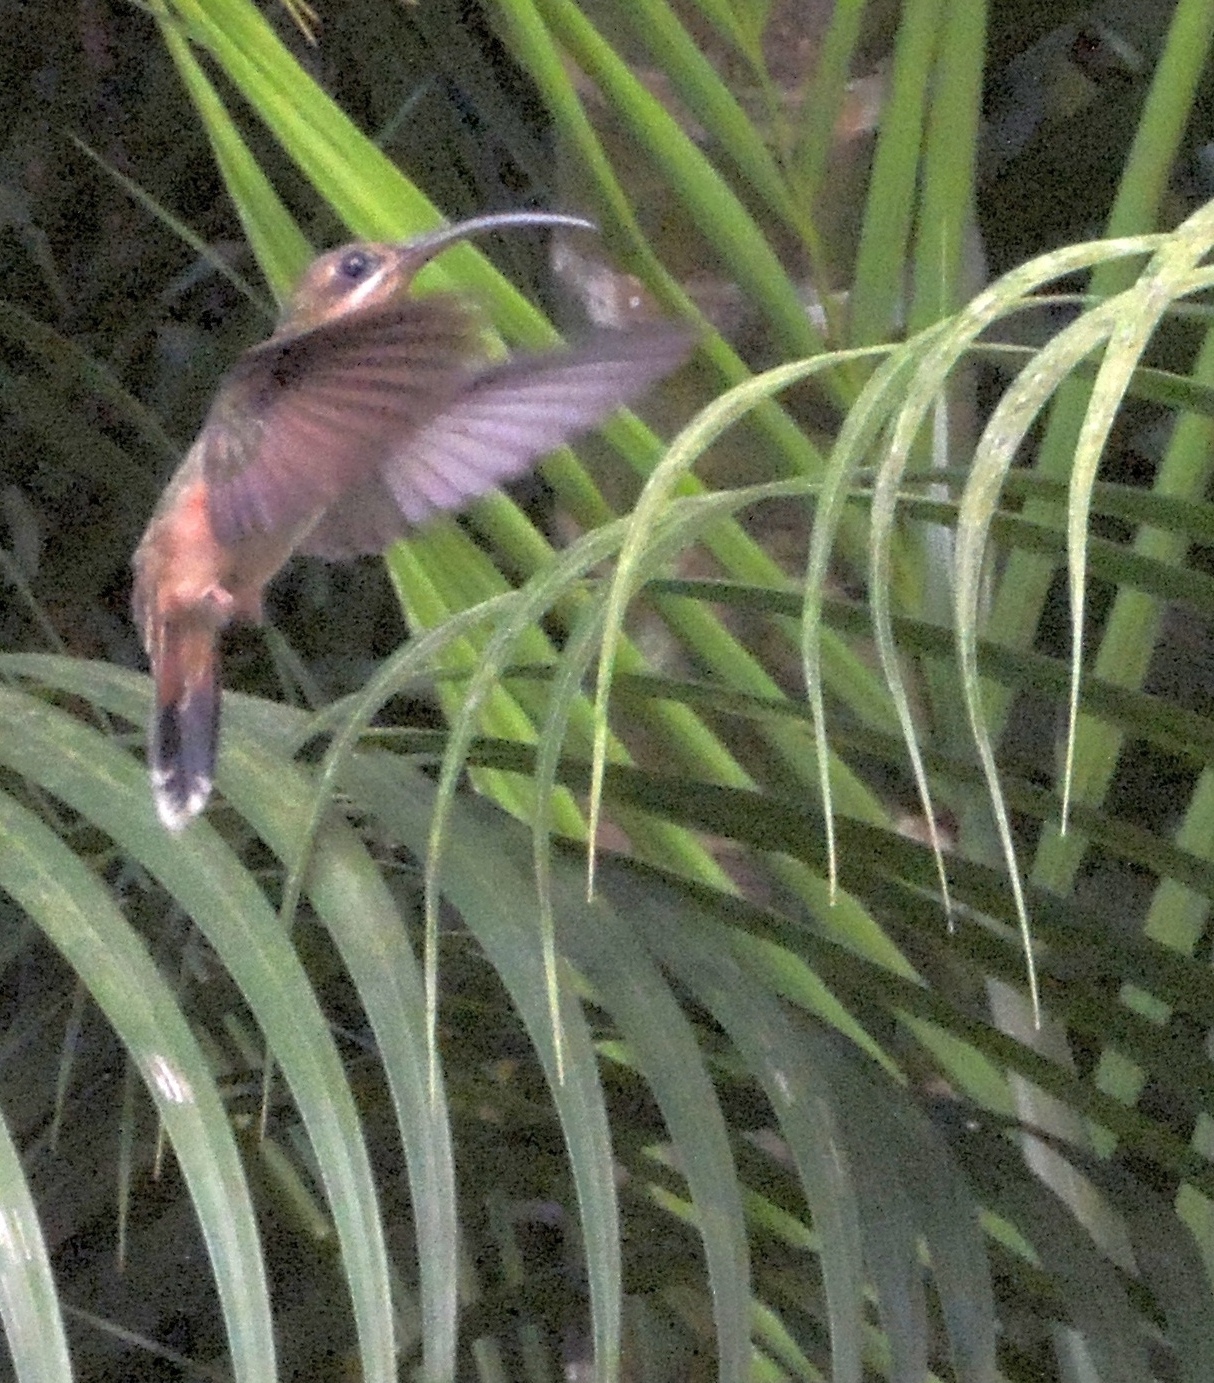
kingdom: Animalia
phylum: Chordata
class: Aves
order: Apodiformes
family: Trochilidae
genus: Glaucis
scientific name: Glaucis hirsutus
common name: Rufous-breasted hermit
